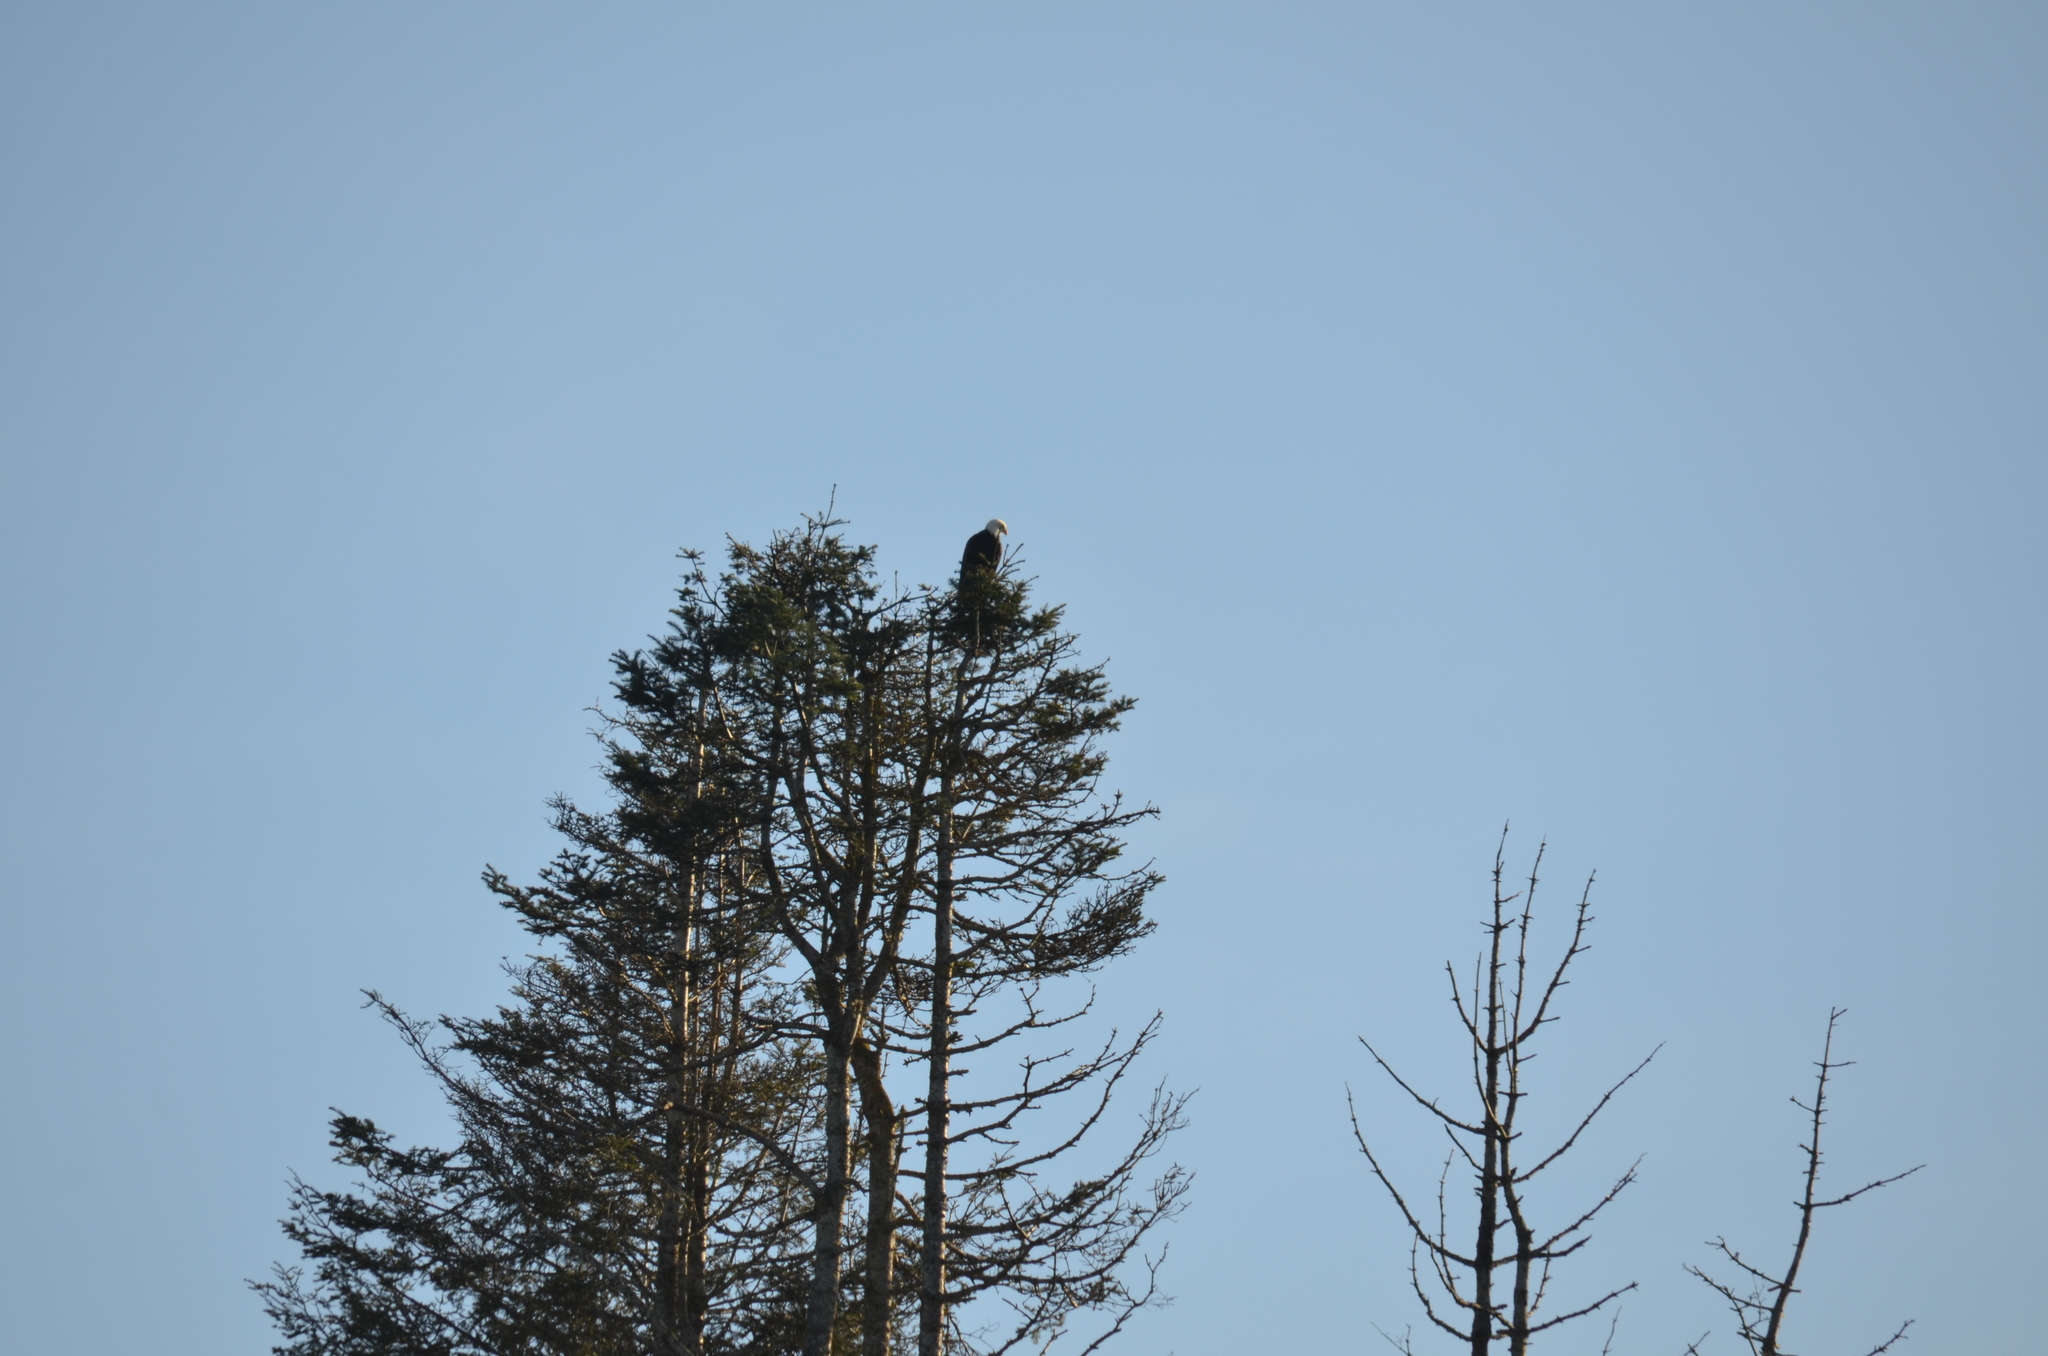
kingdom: Animalia
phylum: Chordata
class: Aves
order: Accipitriformes
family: Accipitridae
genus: Haliaeetus
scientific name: Haliaeetus leucocephalus
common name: Bald eagle
